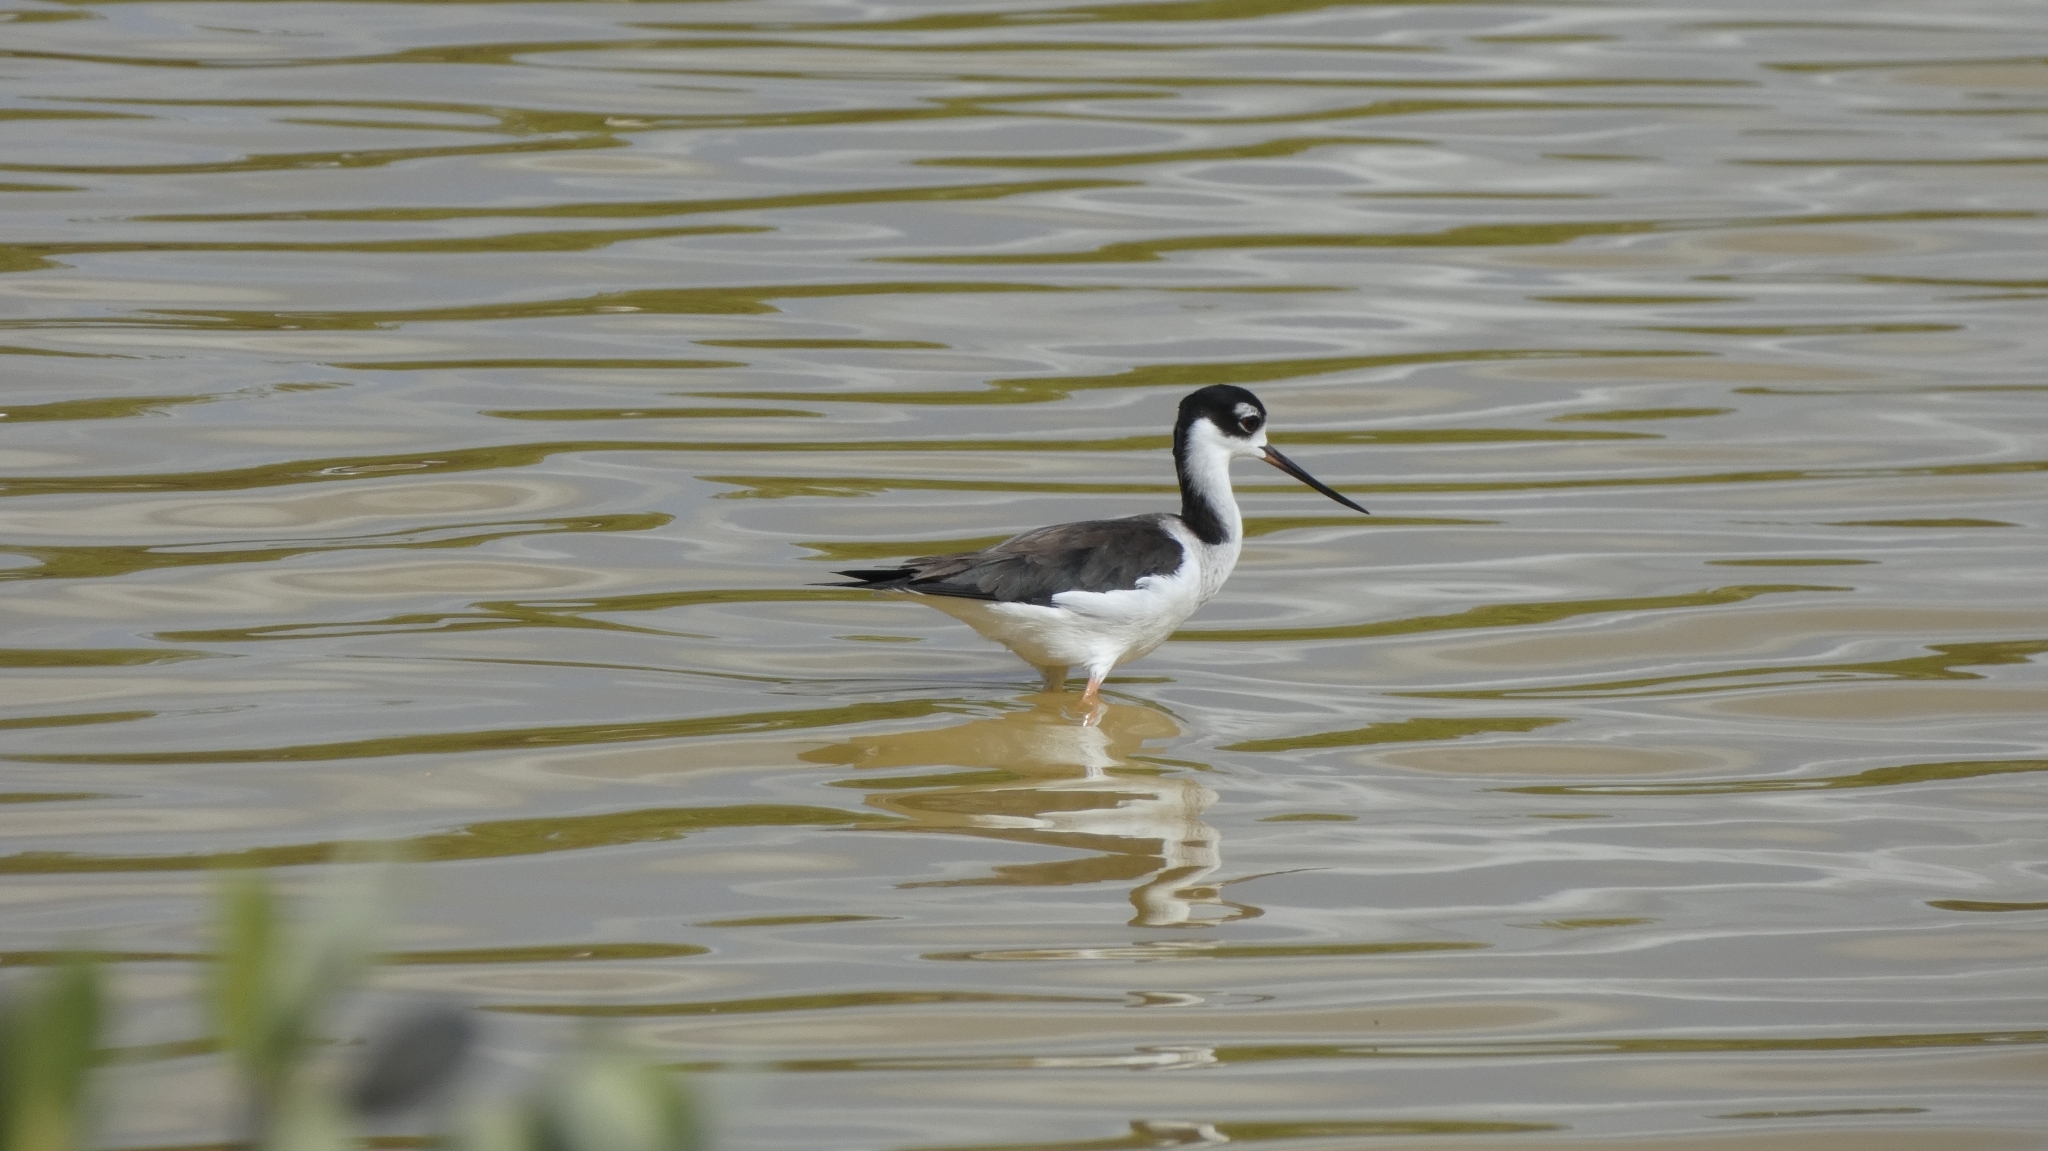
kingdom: Animalia
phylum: Chordata
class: Aves
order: Charadriiformes
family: Recurvirostridae
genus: Himantopus
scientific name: Himantopus mexicanus
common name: Black-necked stilt
